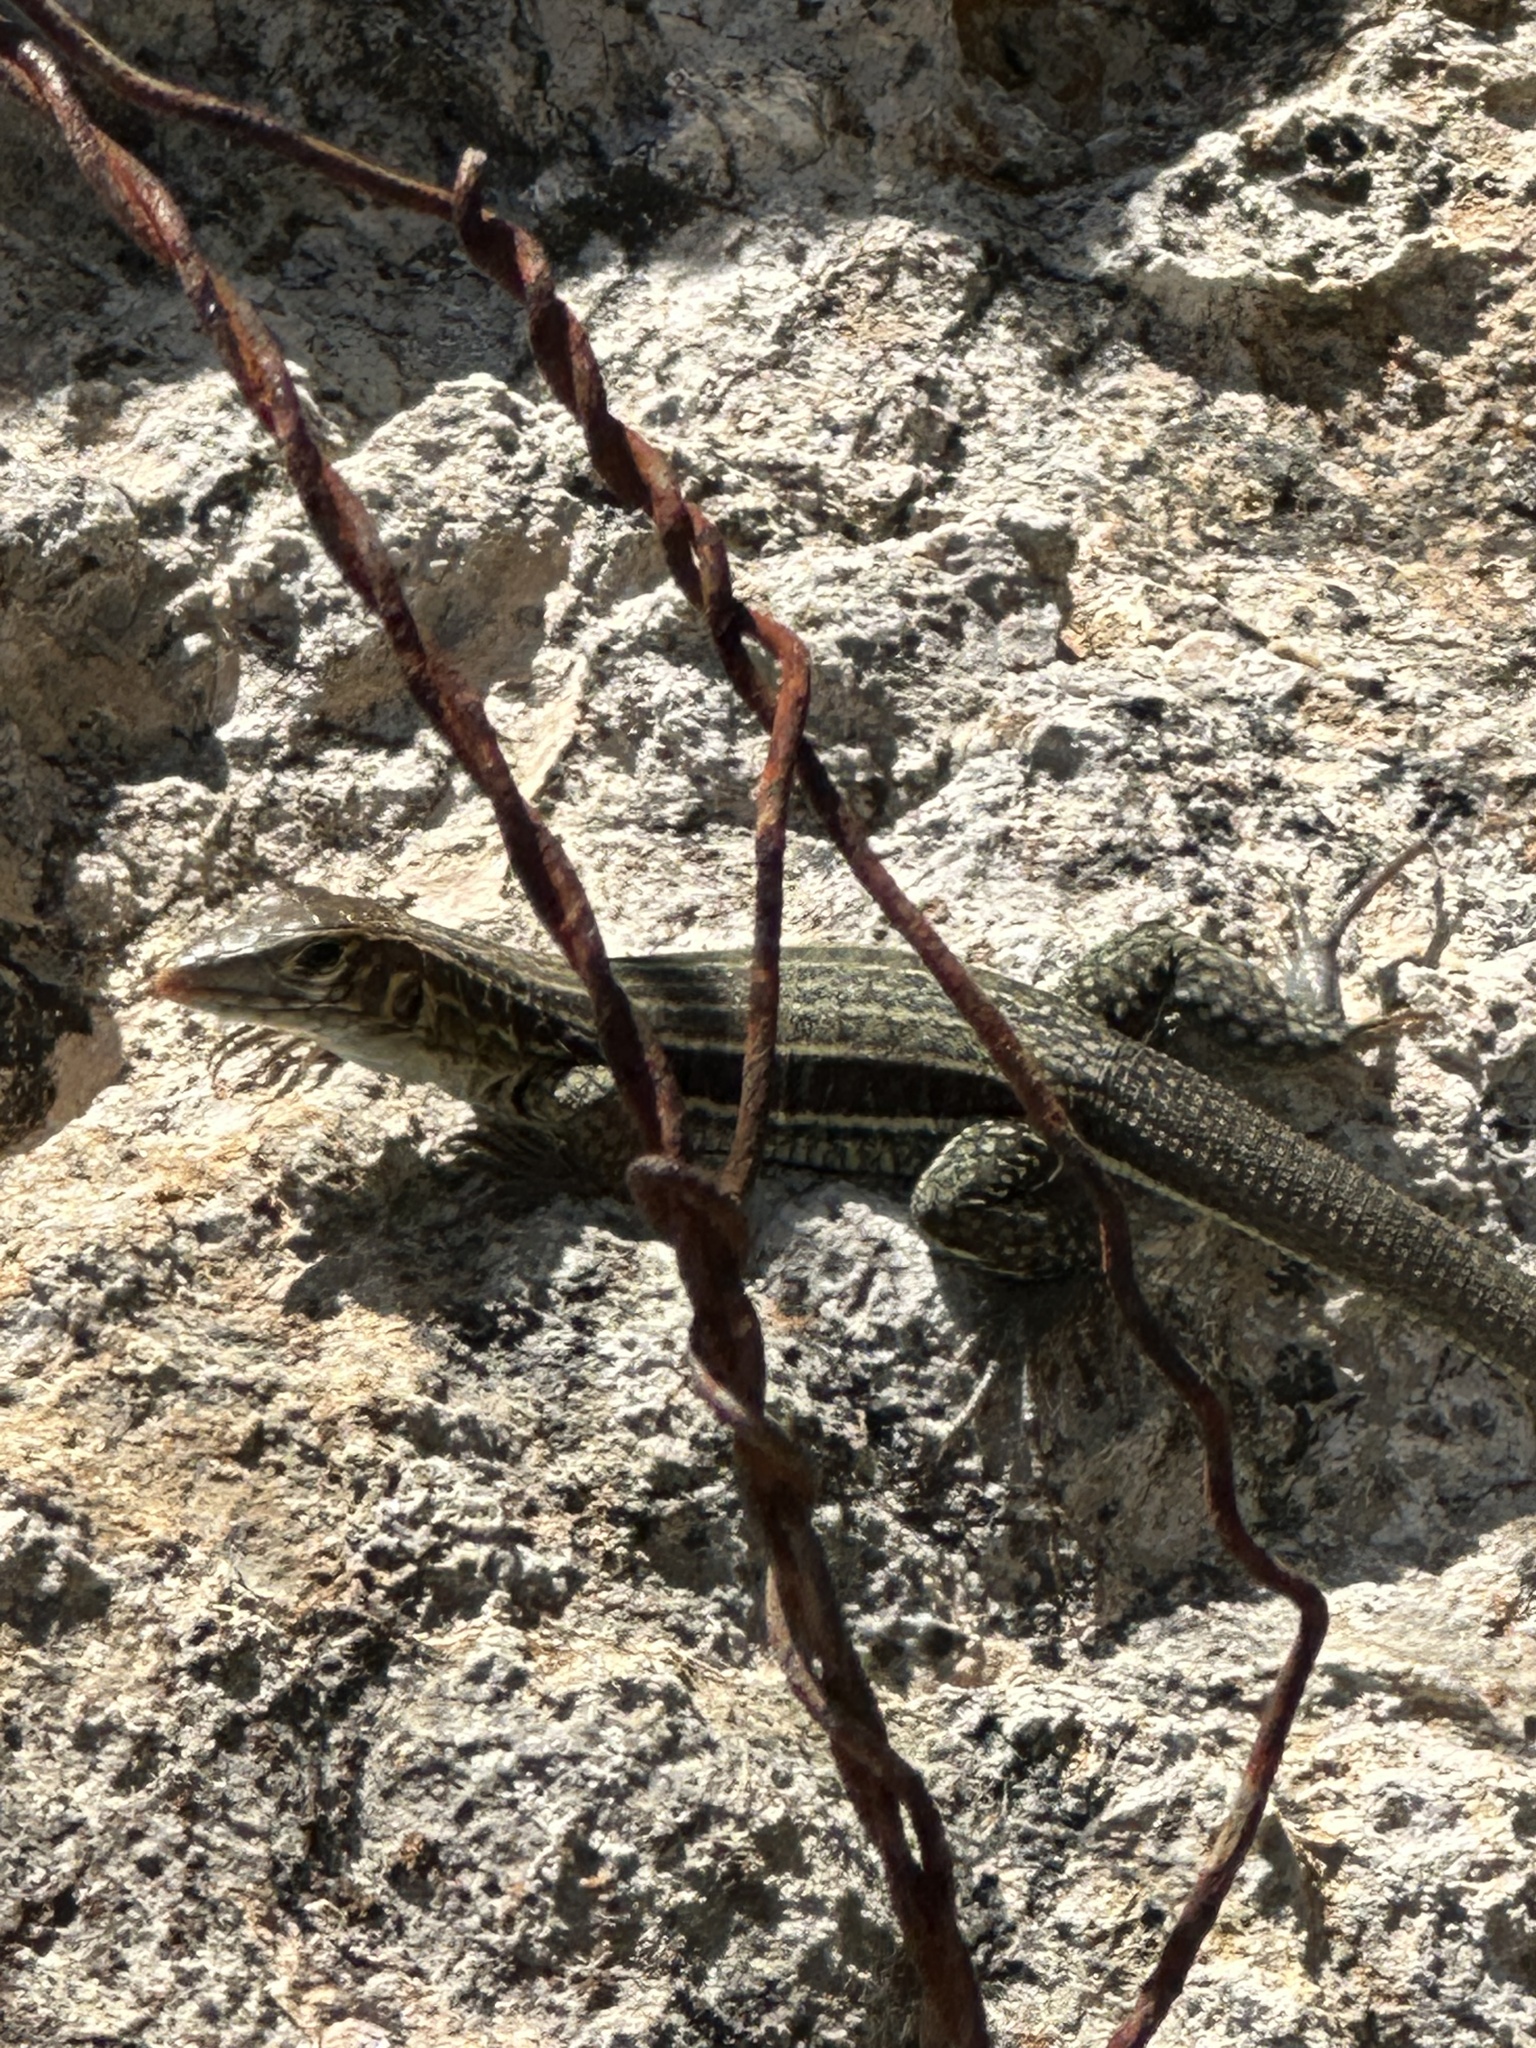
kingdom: Animalia
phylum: Chordata
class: Squamata
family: Teiidae
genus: Pholidoscelis
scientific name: Pholidoscelis plei
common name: Anguilla bank ameiva
